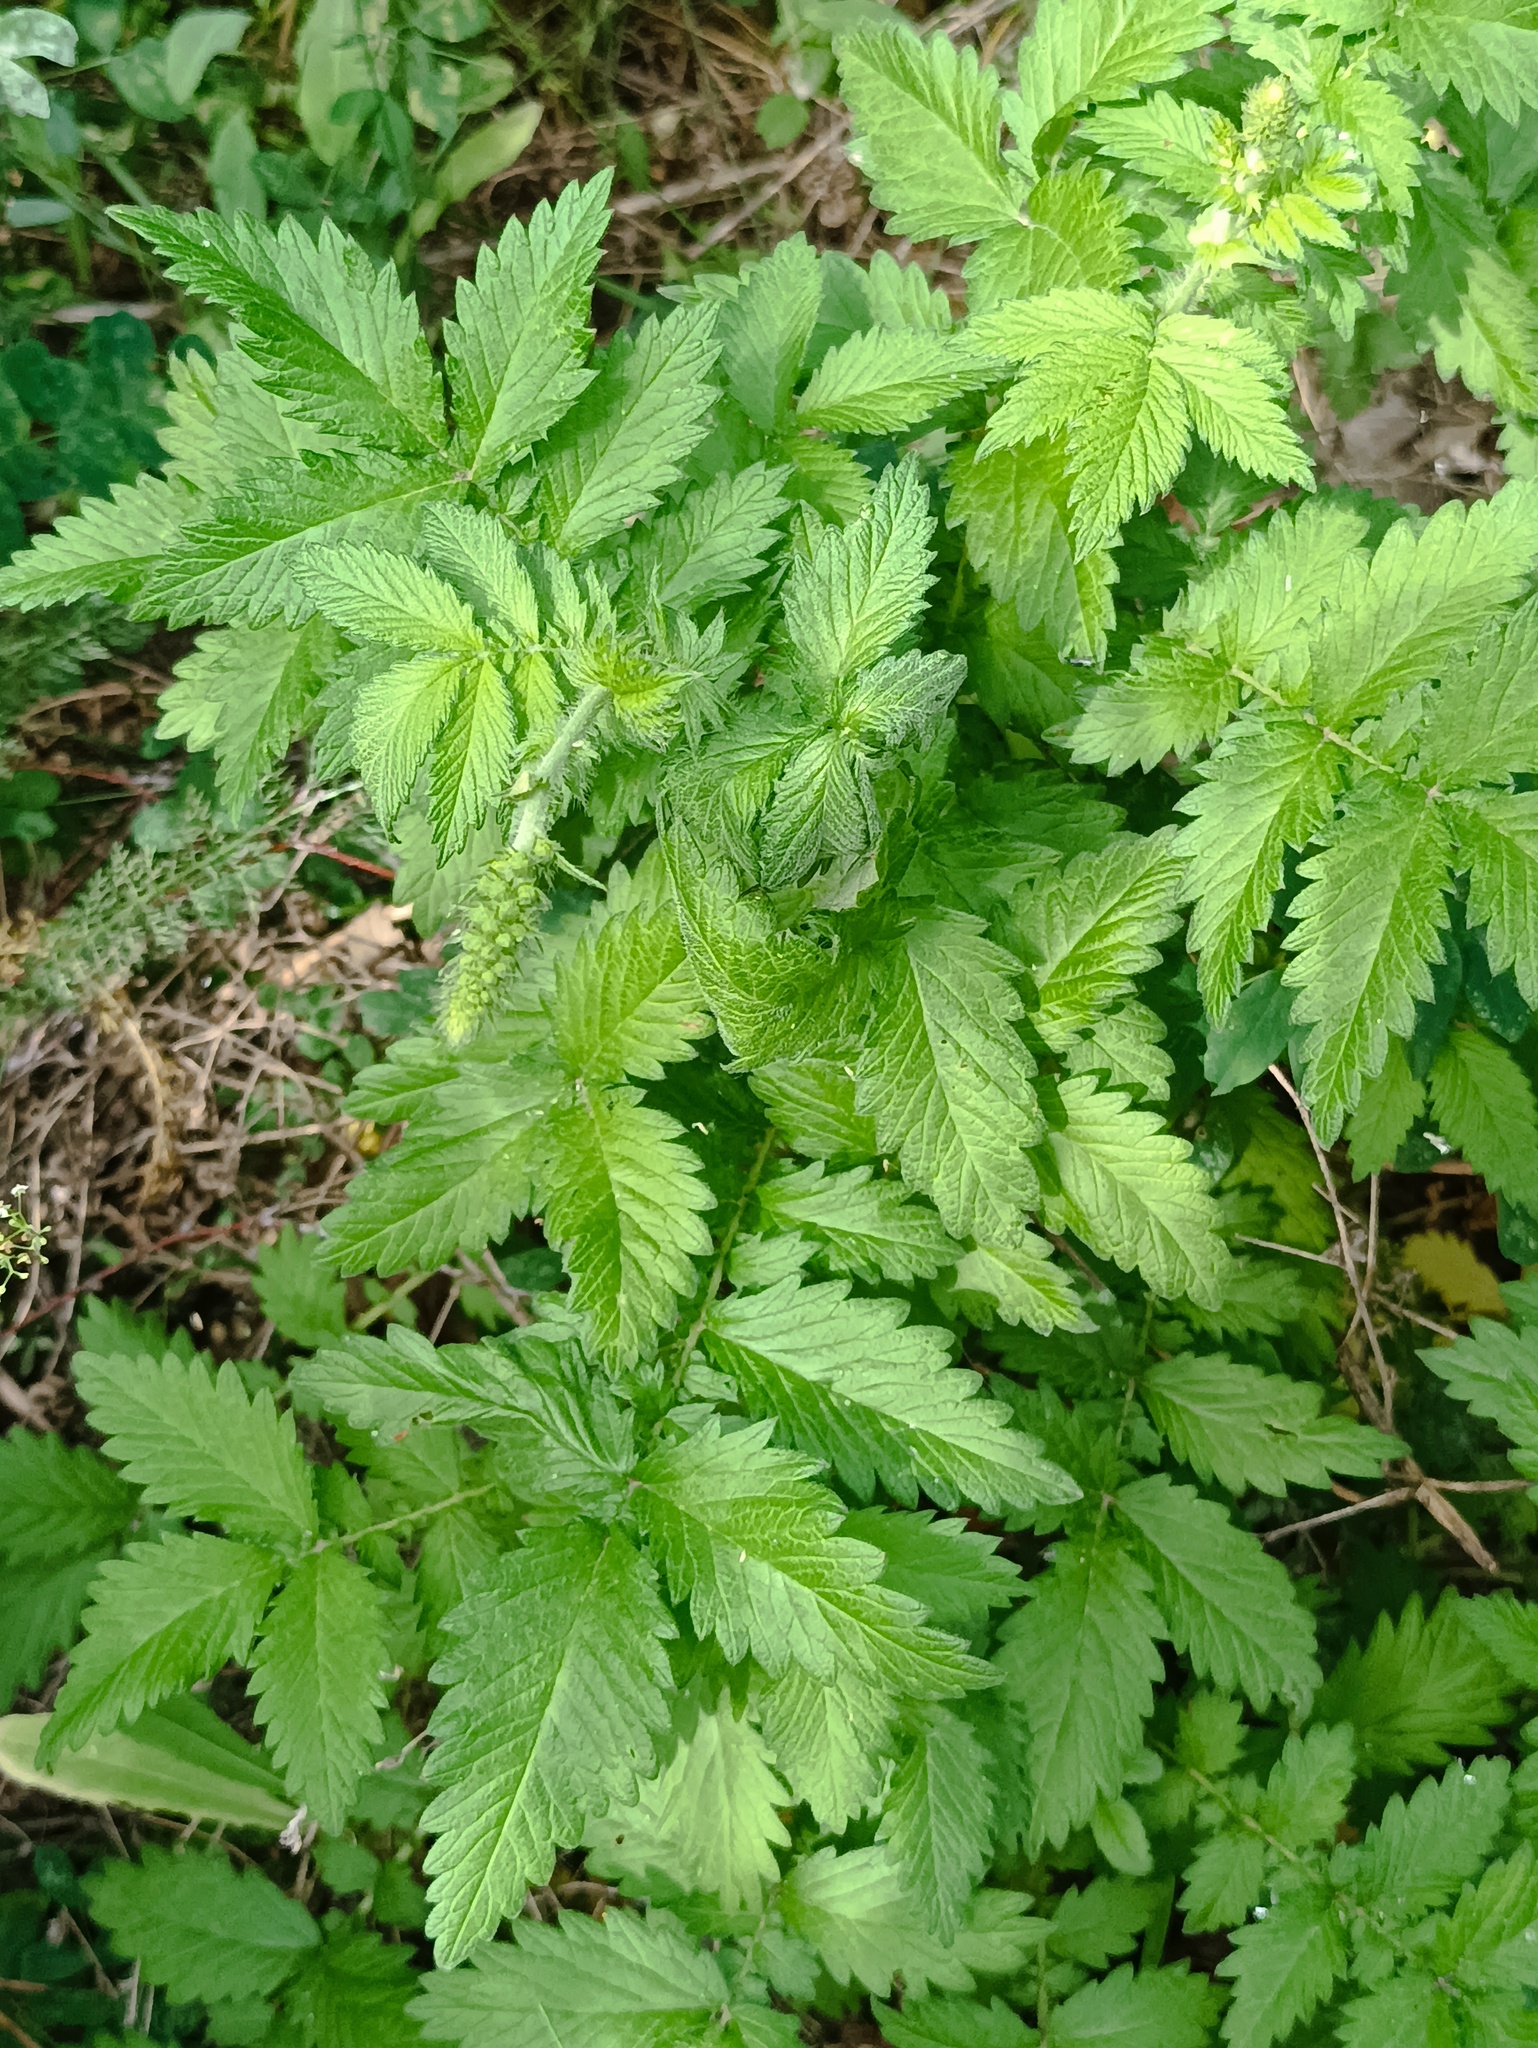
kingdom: Plantae
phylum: Tracheophyta
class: Magnoliopsida
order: Rosales
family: Rosaceae
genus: Agrimonia
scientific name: Agrimonia eupatoria
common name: Agrimony
